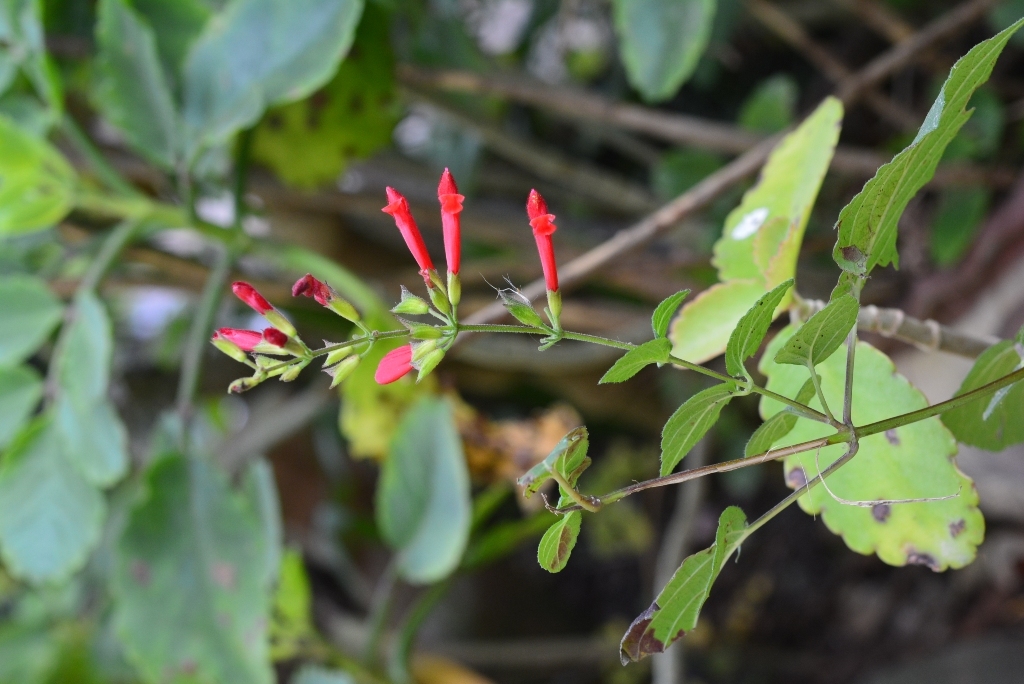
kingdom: Plantae
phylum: Tracheophyta
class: Magnoliopsida
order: Lamiales
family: Lamiaceae
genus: Salvia
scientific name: Salvia holwayi
